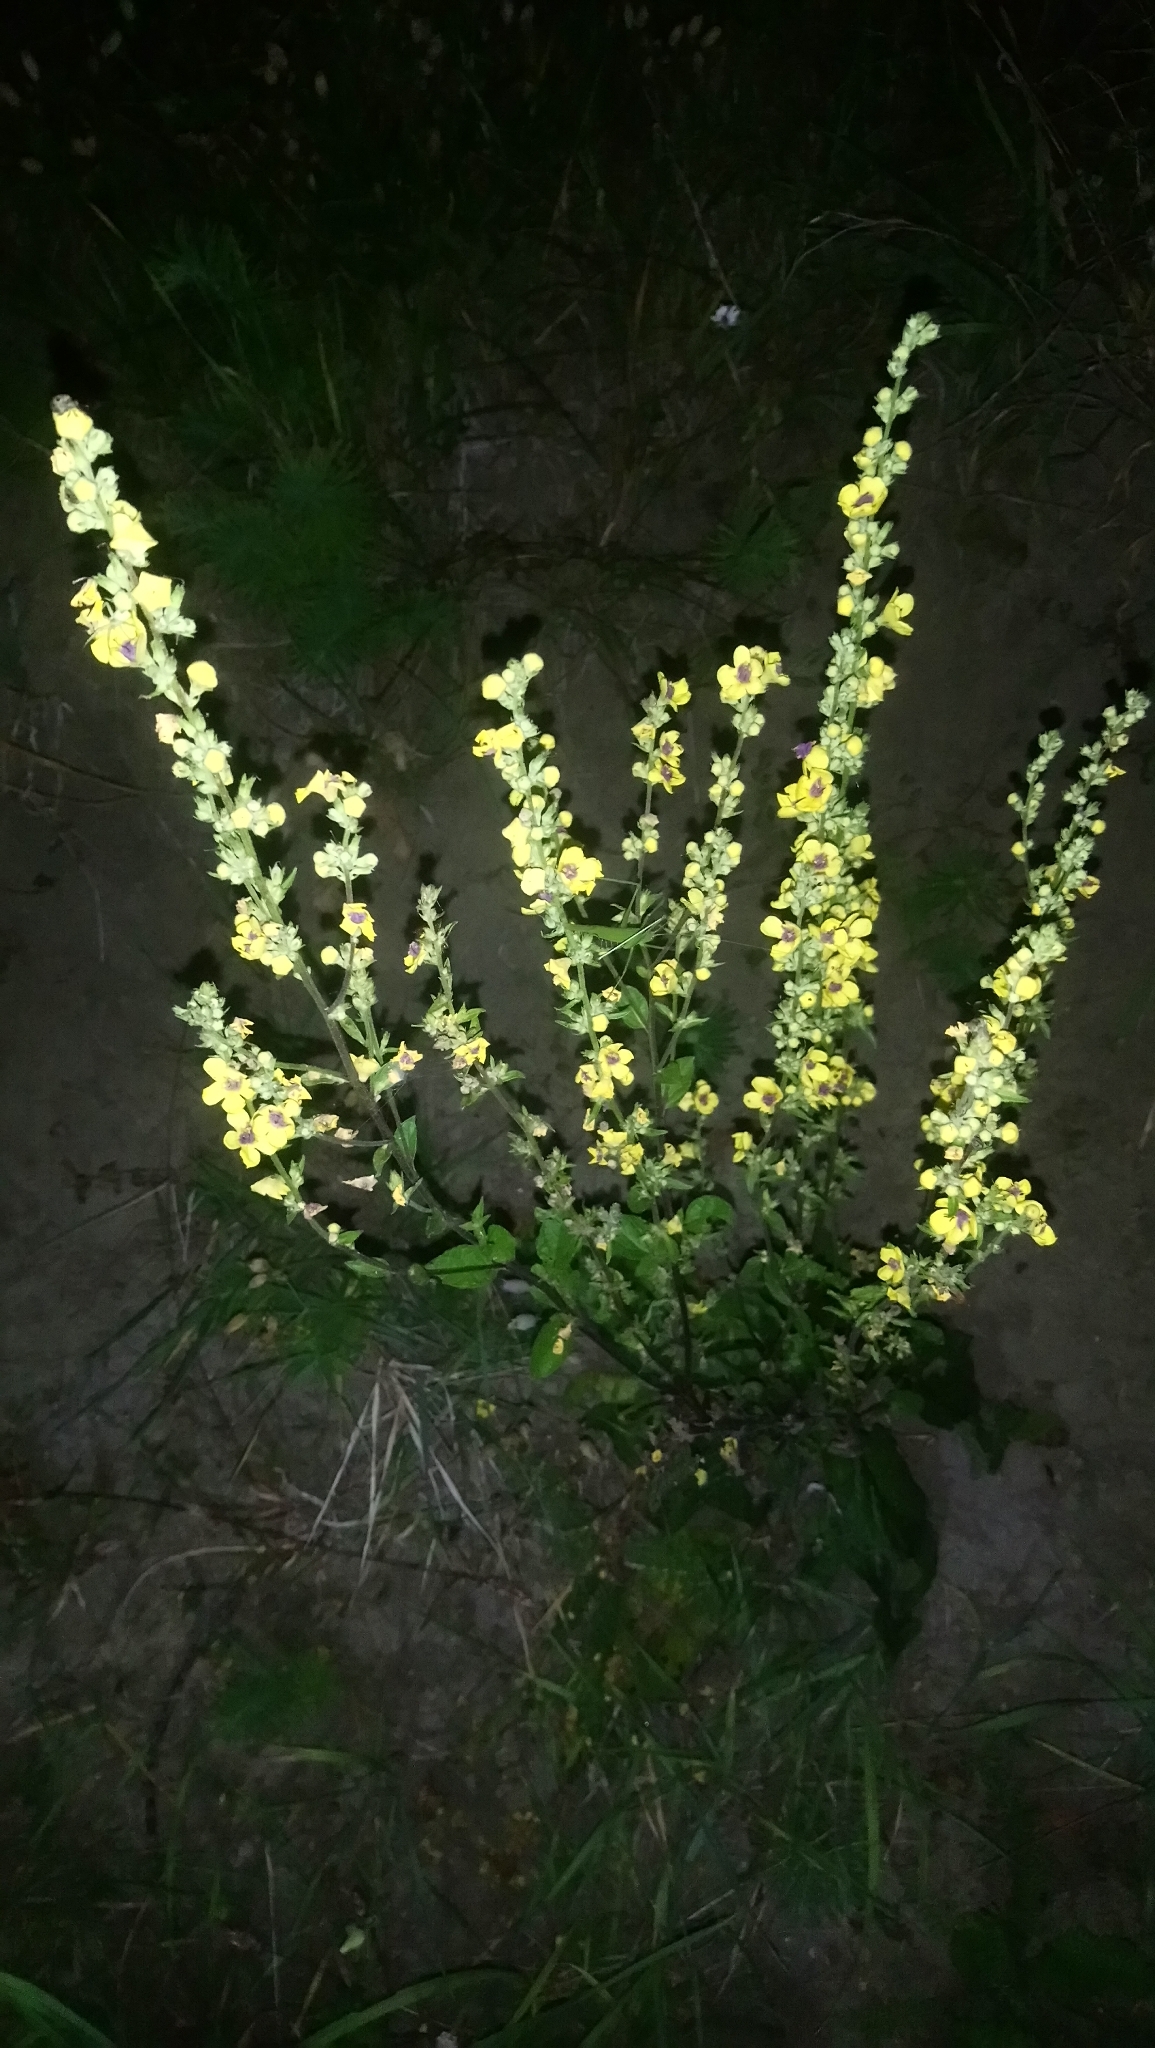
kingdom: Plantae
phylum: Tracheophyta
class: Magnoliopsida
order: Lamiales
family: Scrophulariaceae
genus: Verbascum
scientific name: Verbascum chaixii
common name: Nettle-leaved mullein
